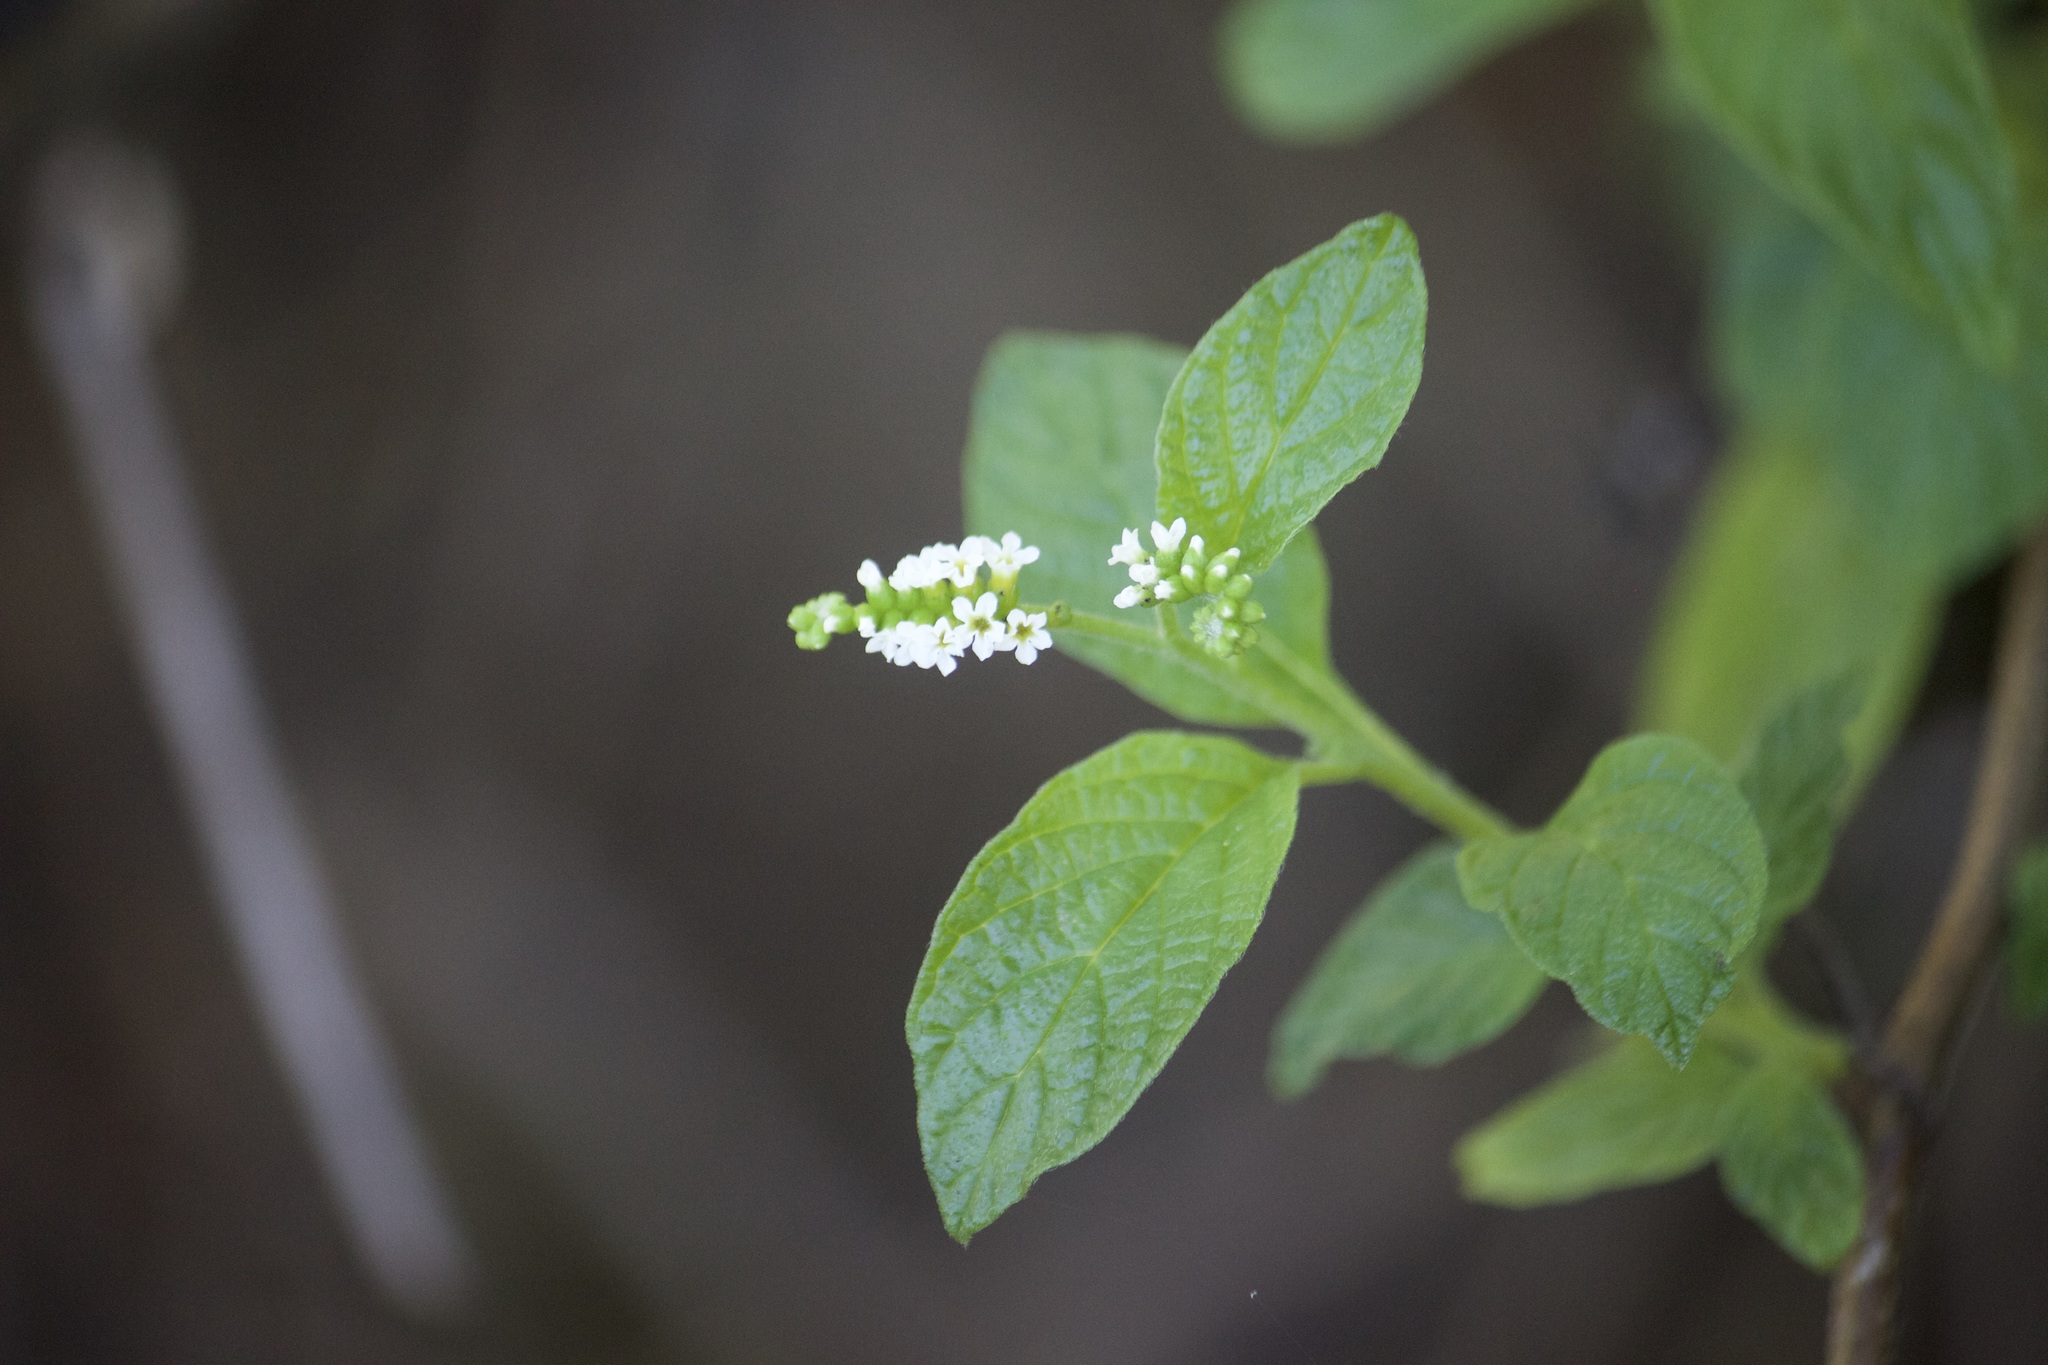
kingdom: Plantae
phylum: Tracheophyta
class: Magnoliopsida
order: Boraginales
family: Heliotropiaceae
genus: Heliotropium
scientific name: Heliotropium angiospermum
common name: Eye bright
